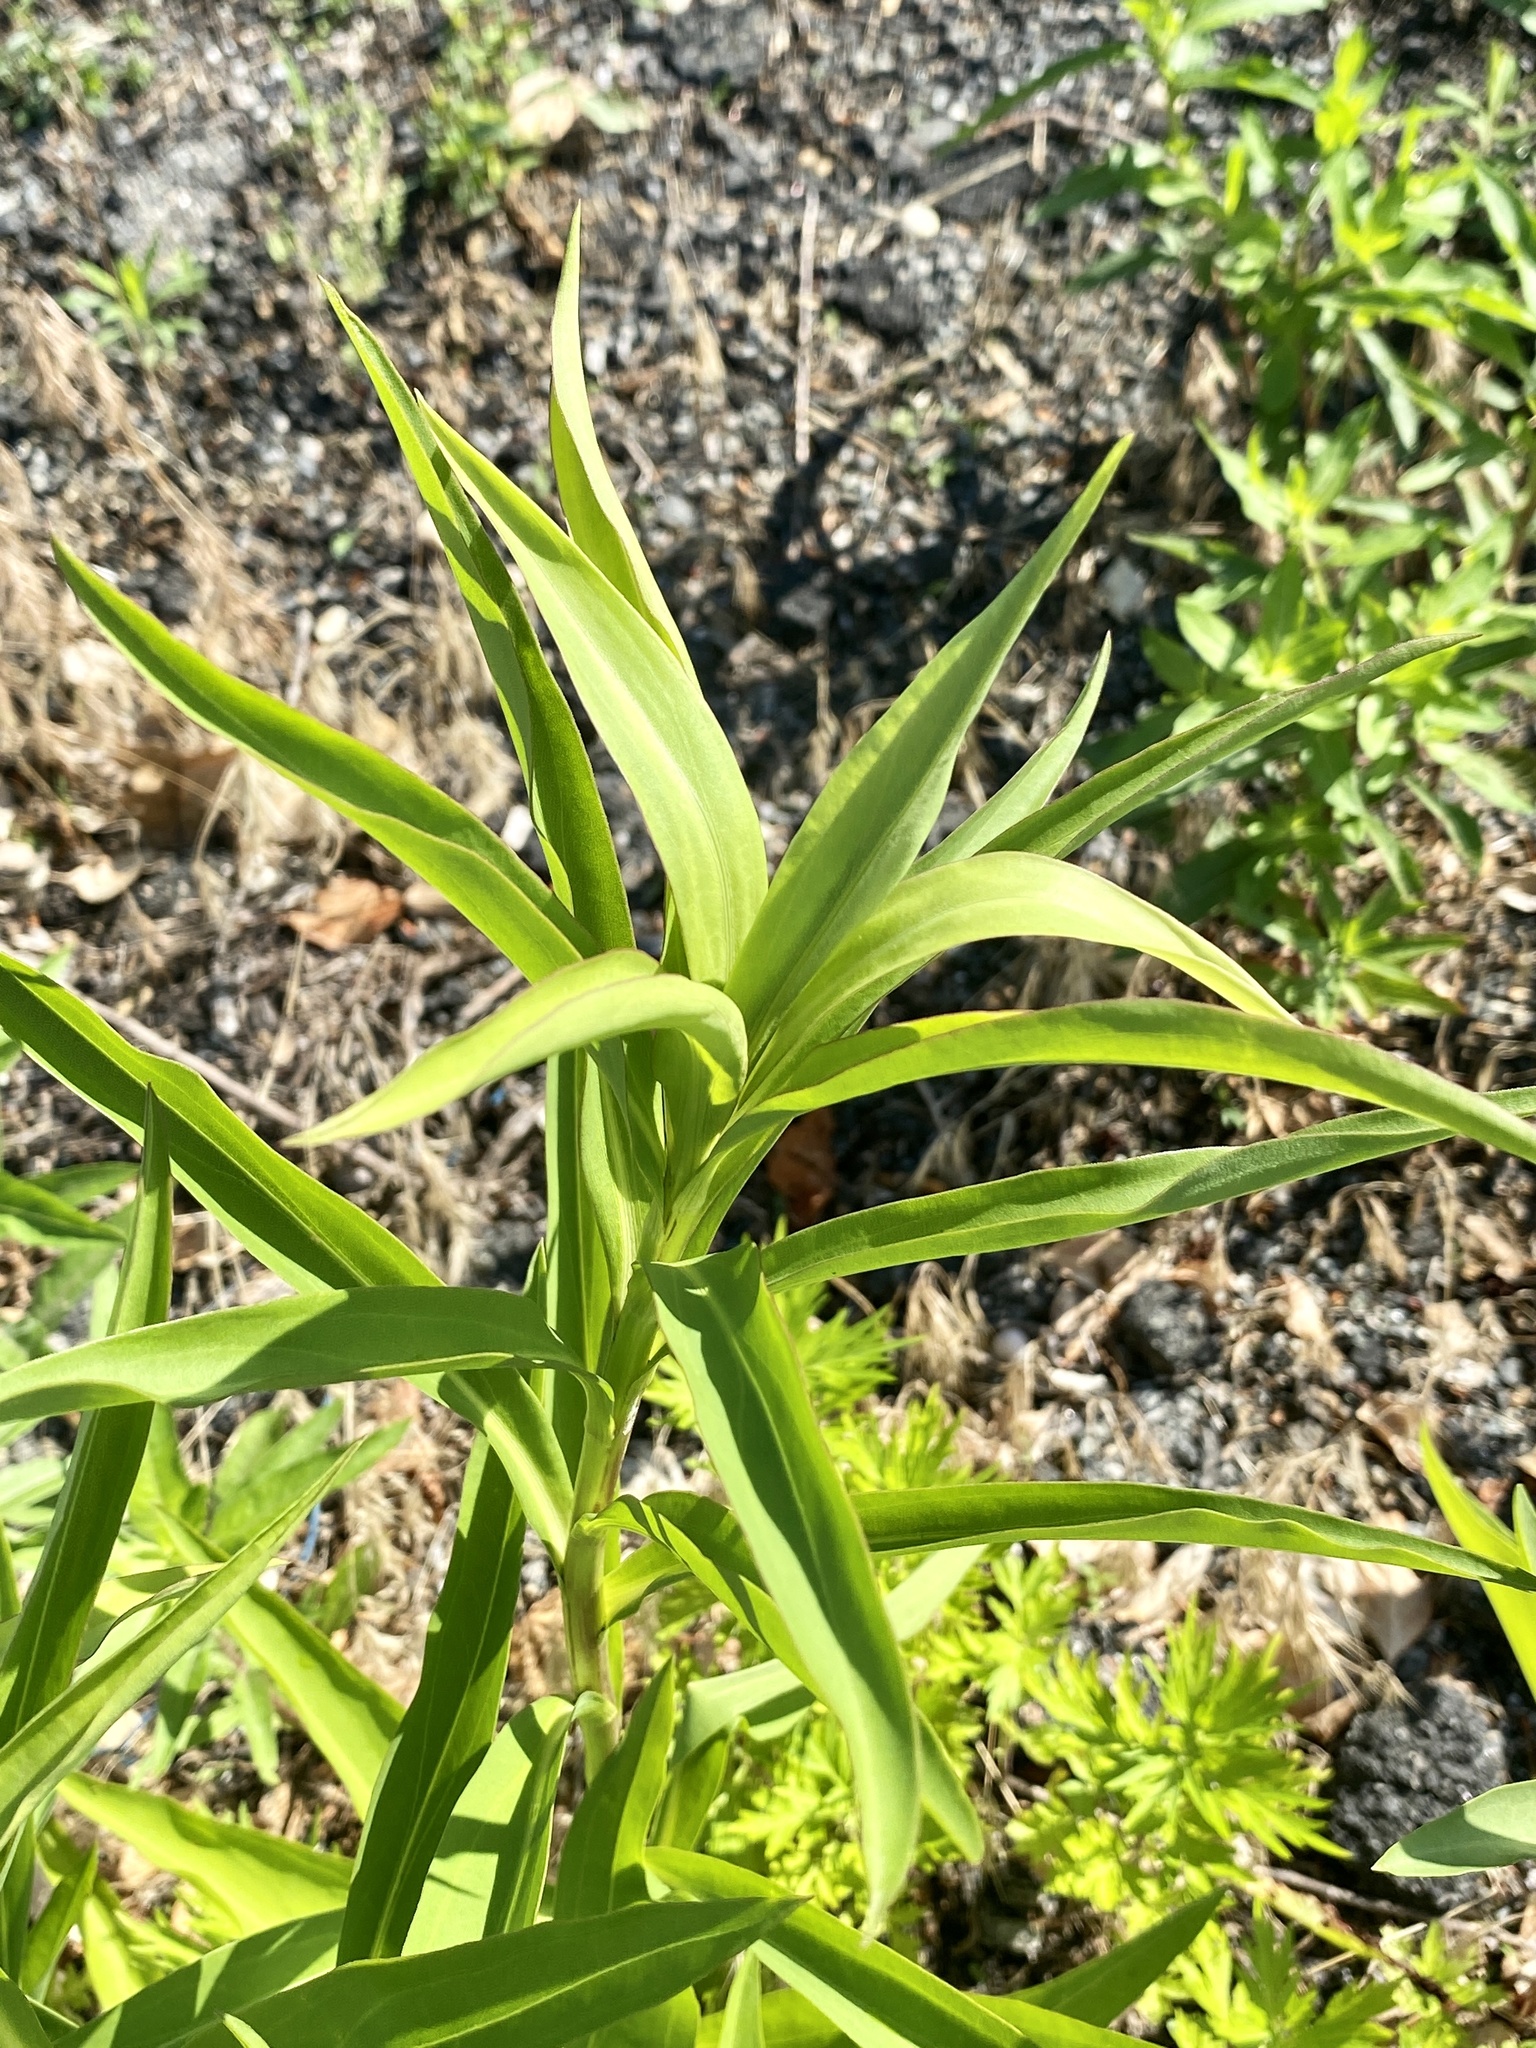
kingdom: Plantae
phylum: Tracheophyta
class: Magnoliopsida
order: Asterales
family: Asteraceae
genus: Solidago
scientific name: Solidago sempervirens
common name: Salt-marsh goldenrod
